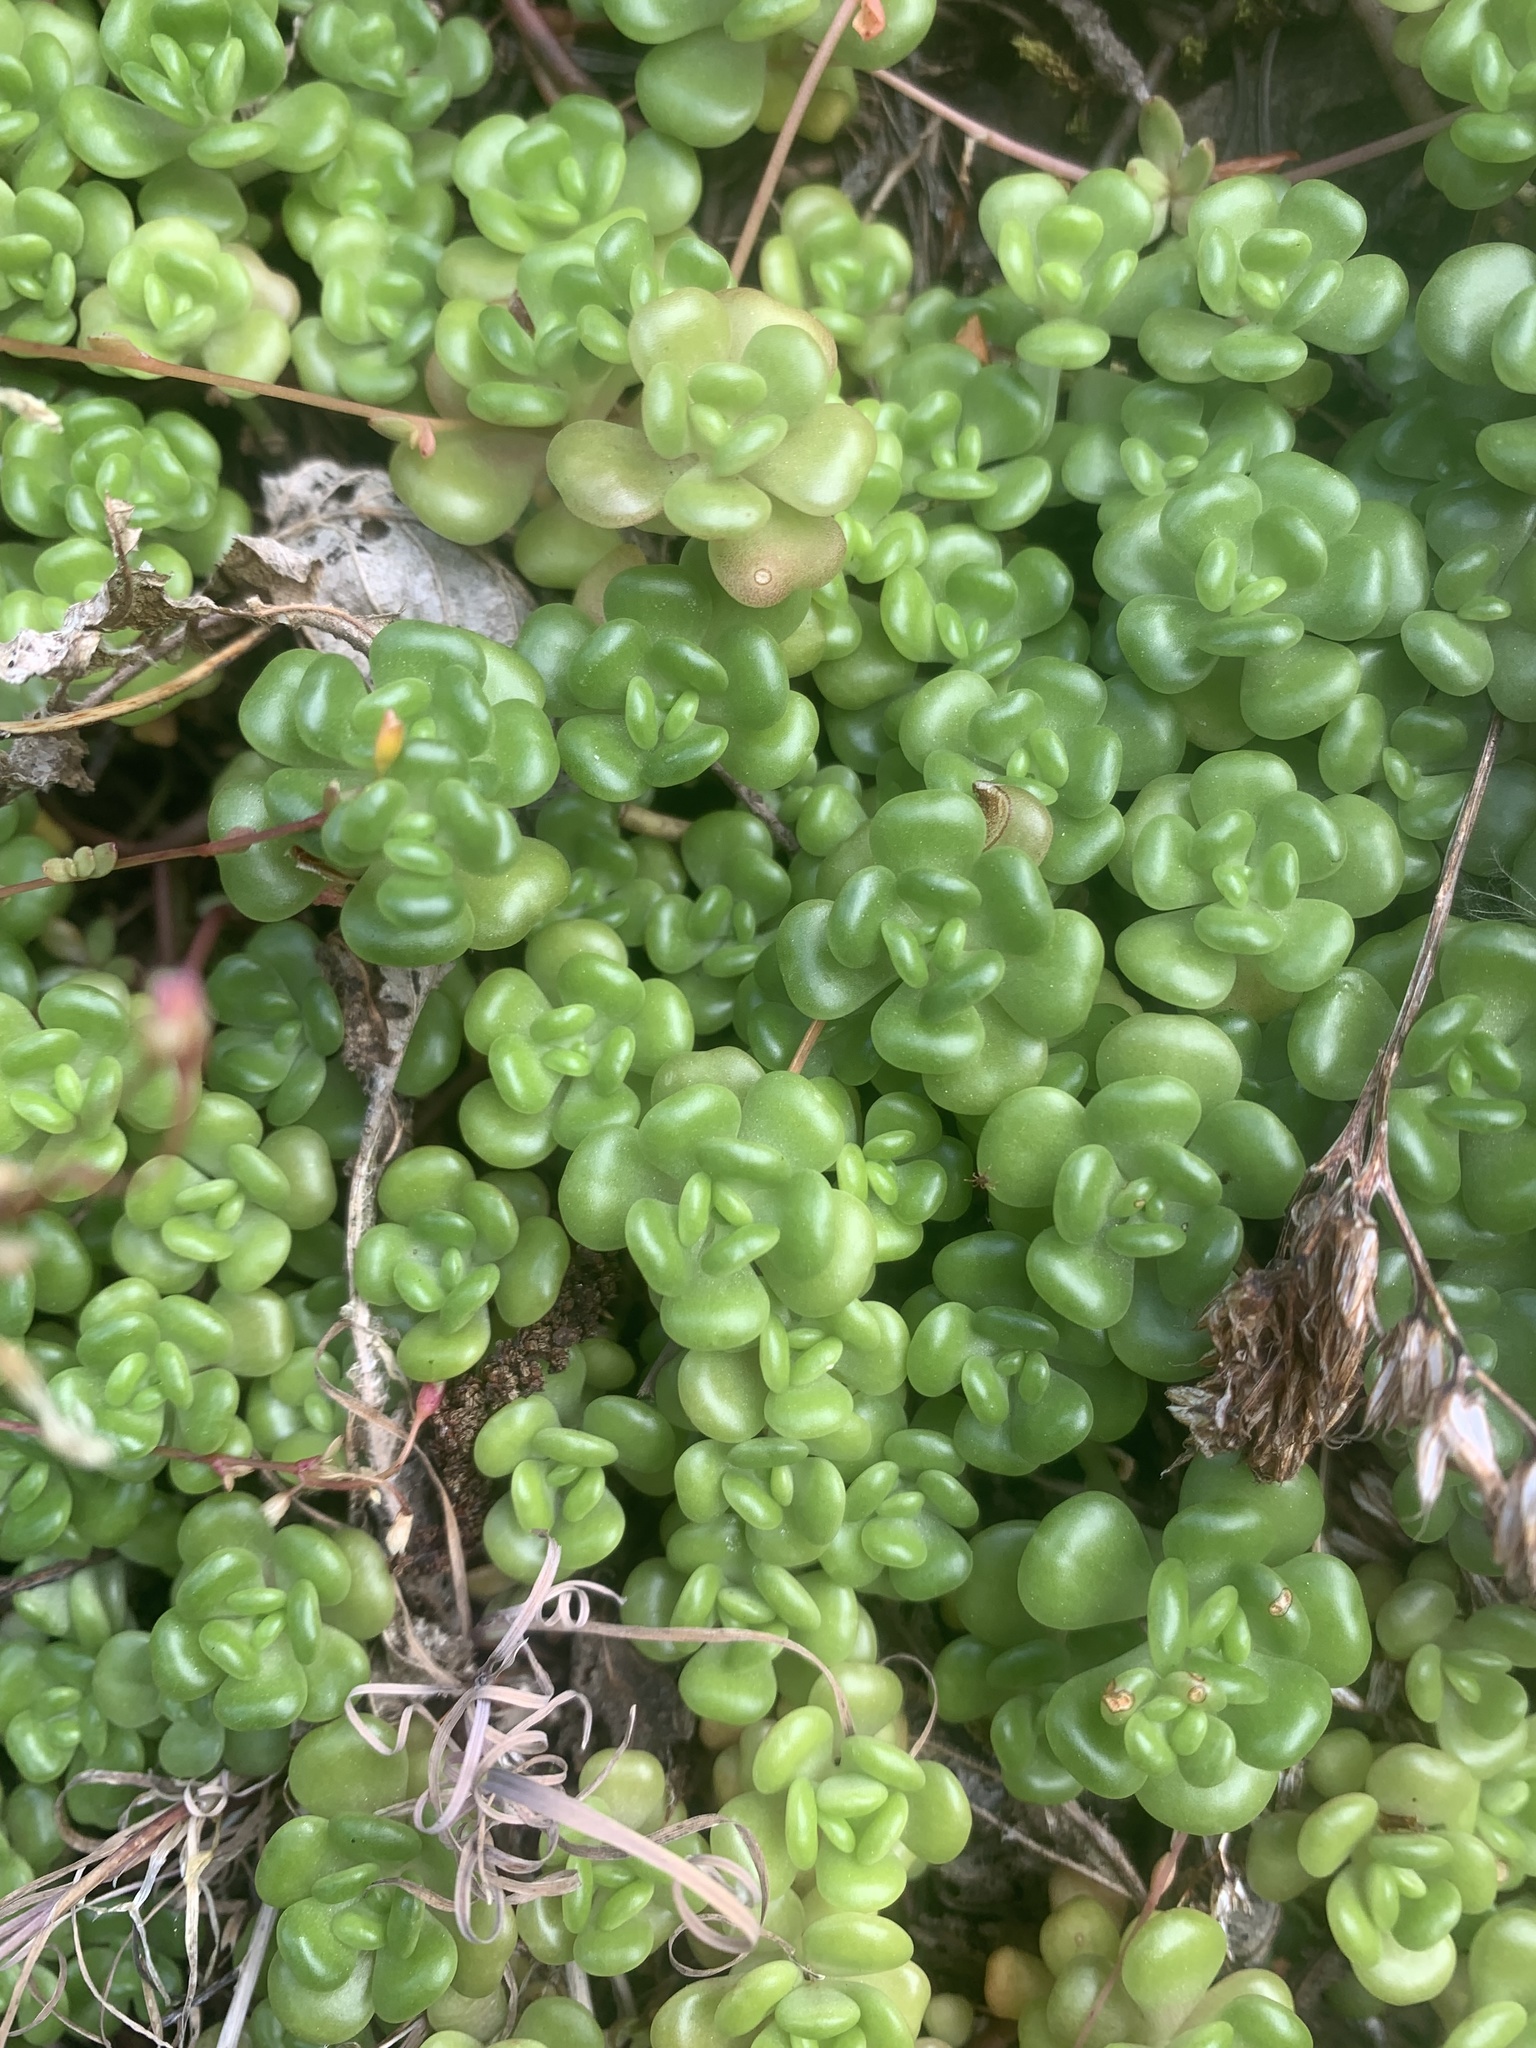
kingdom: Plantae
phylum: Tracheophyta
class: Magnoliopsida
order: Saxifragales
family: Crassulaceae
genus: Sedum
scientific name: Sedum oreganum
